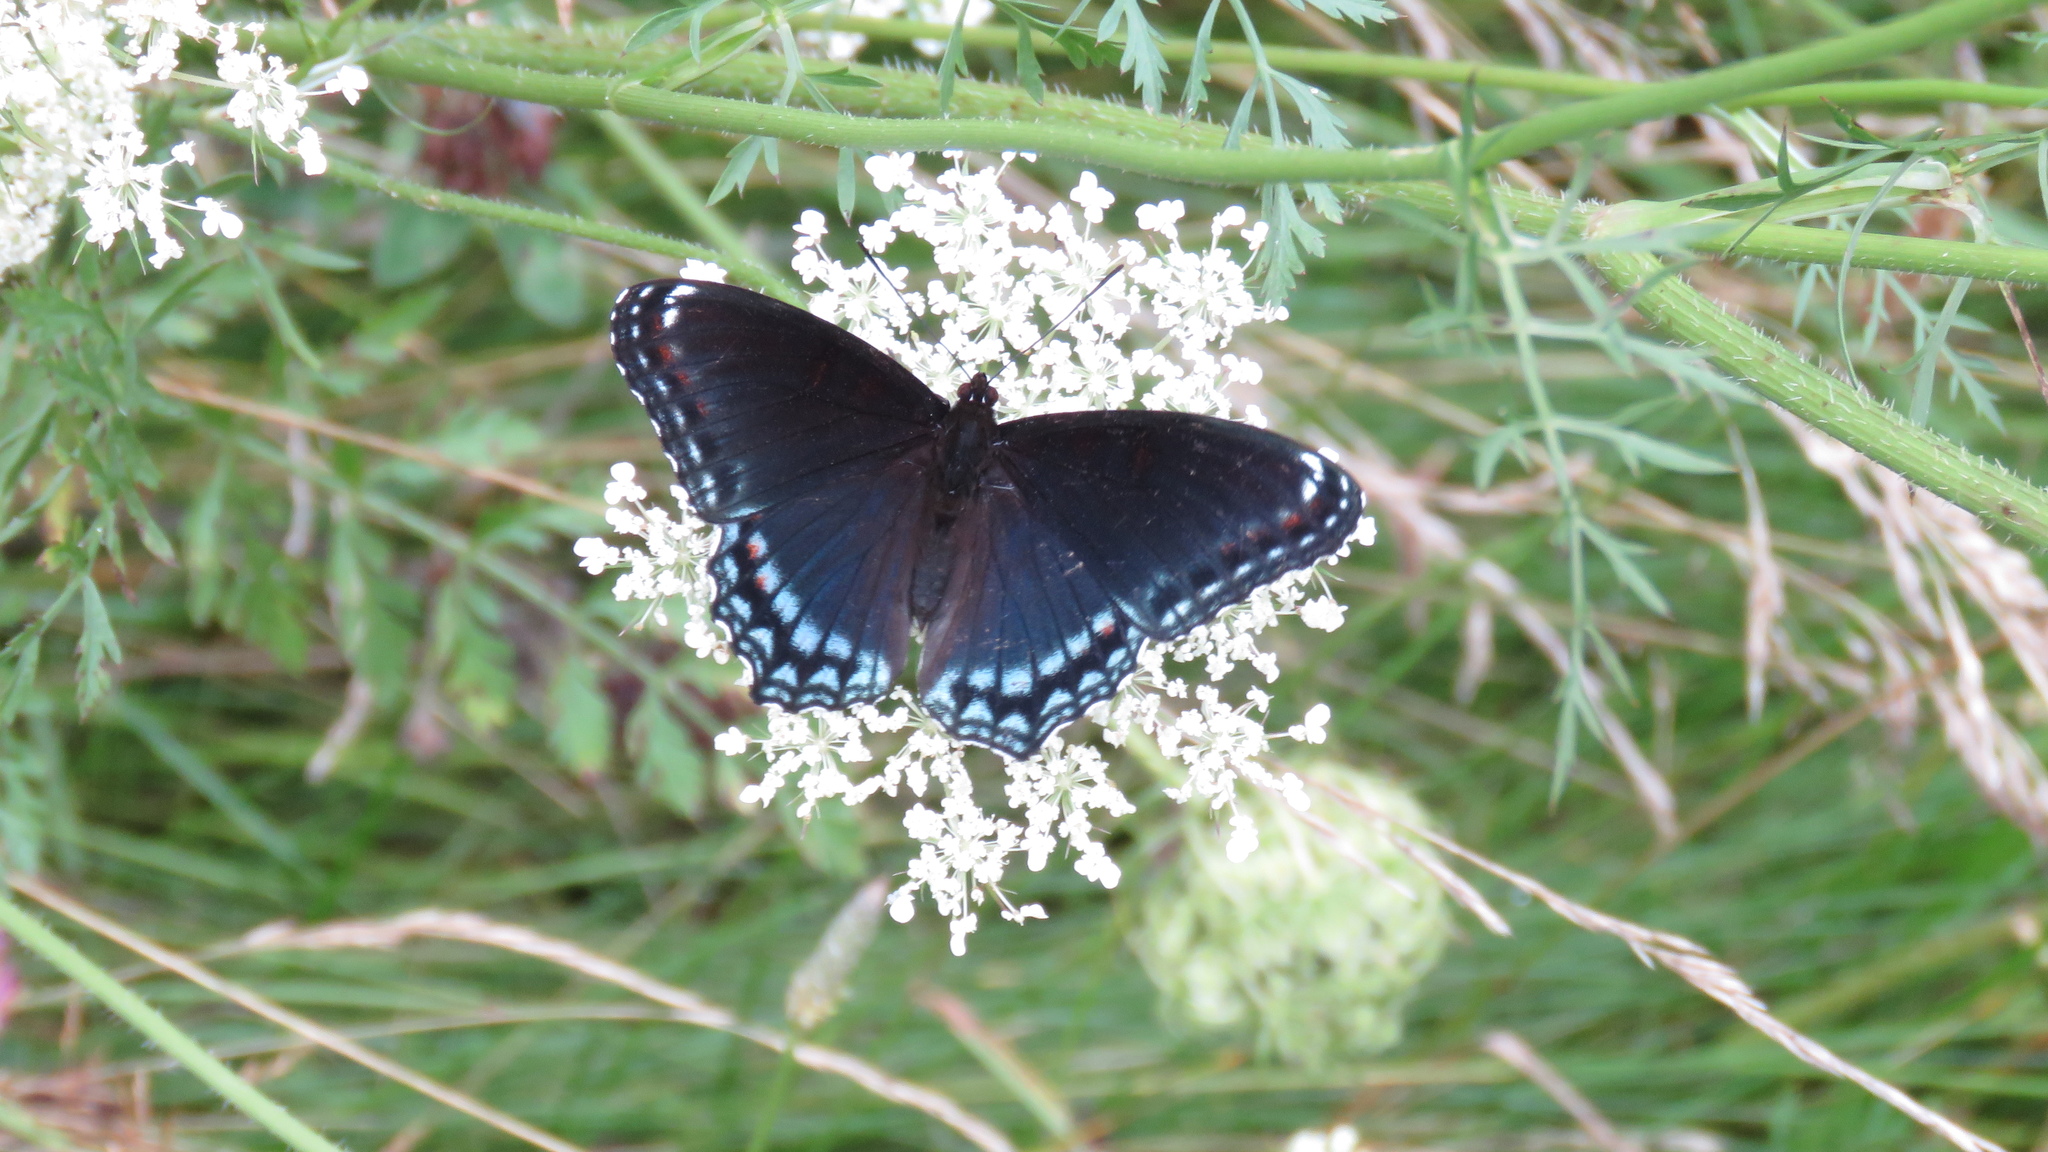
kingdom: Animalia
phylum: Arthropoda
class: Insecta
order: Lepidoptera
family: Nymphalidae
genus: Limenitis
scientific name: Limenitis astyanax
